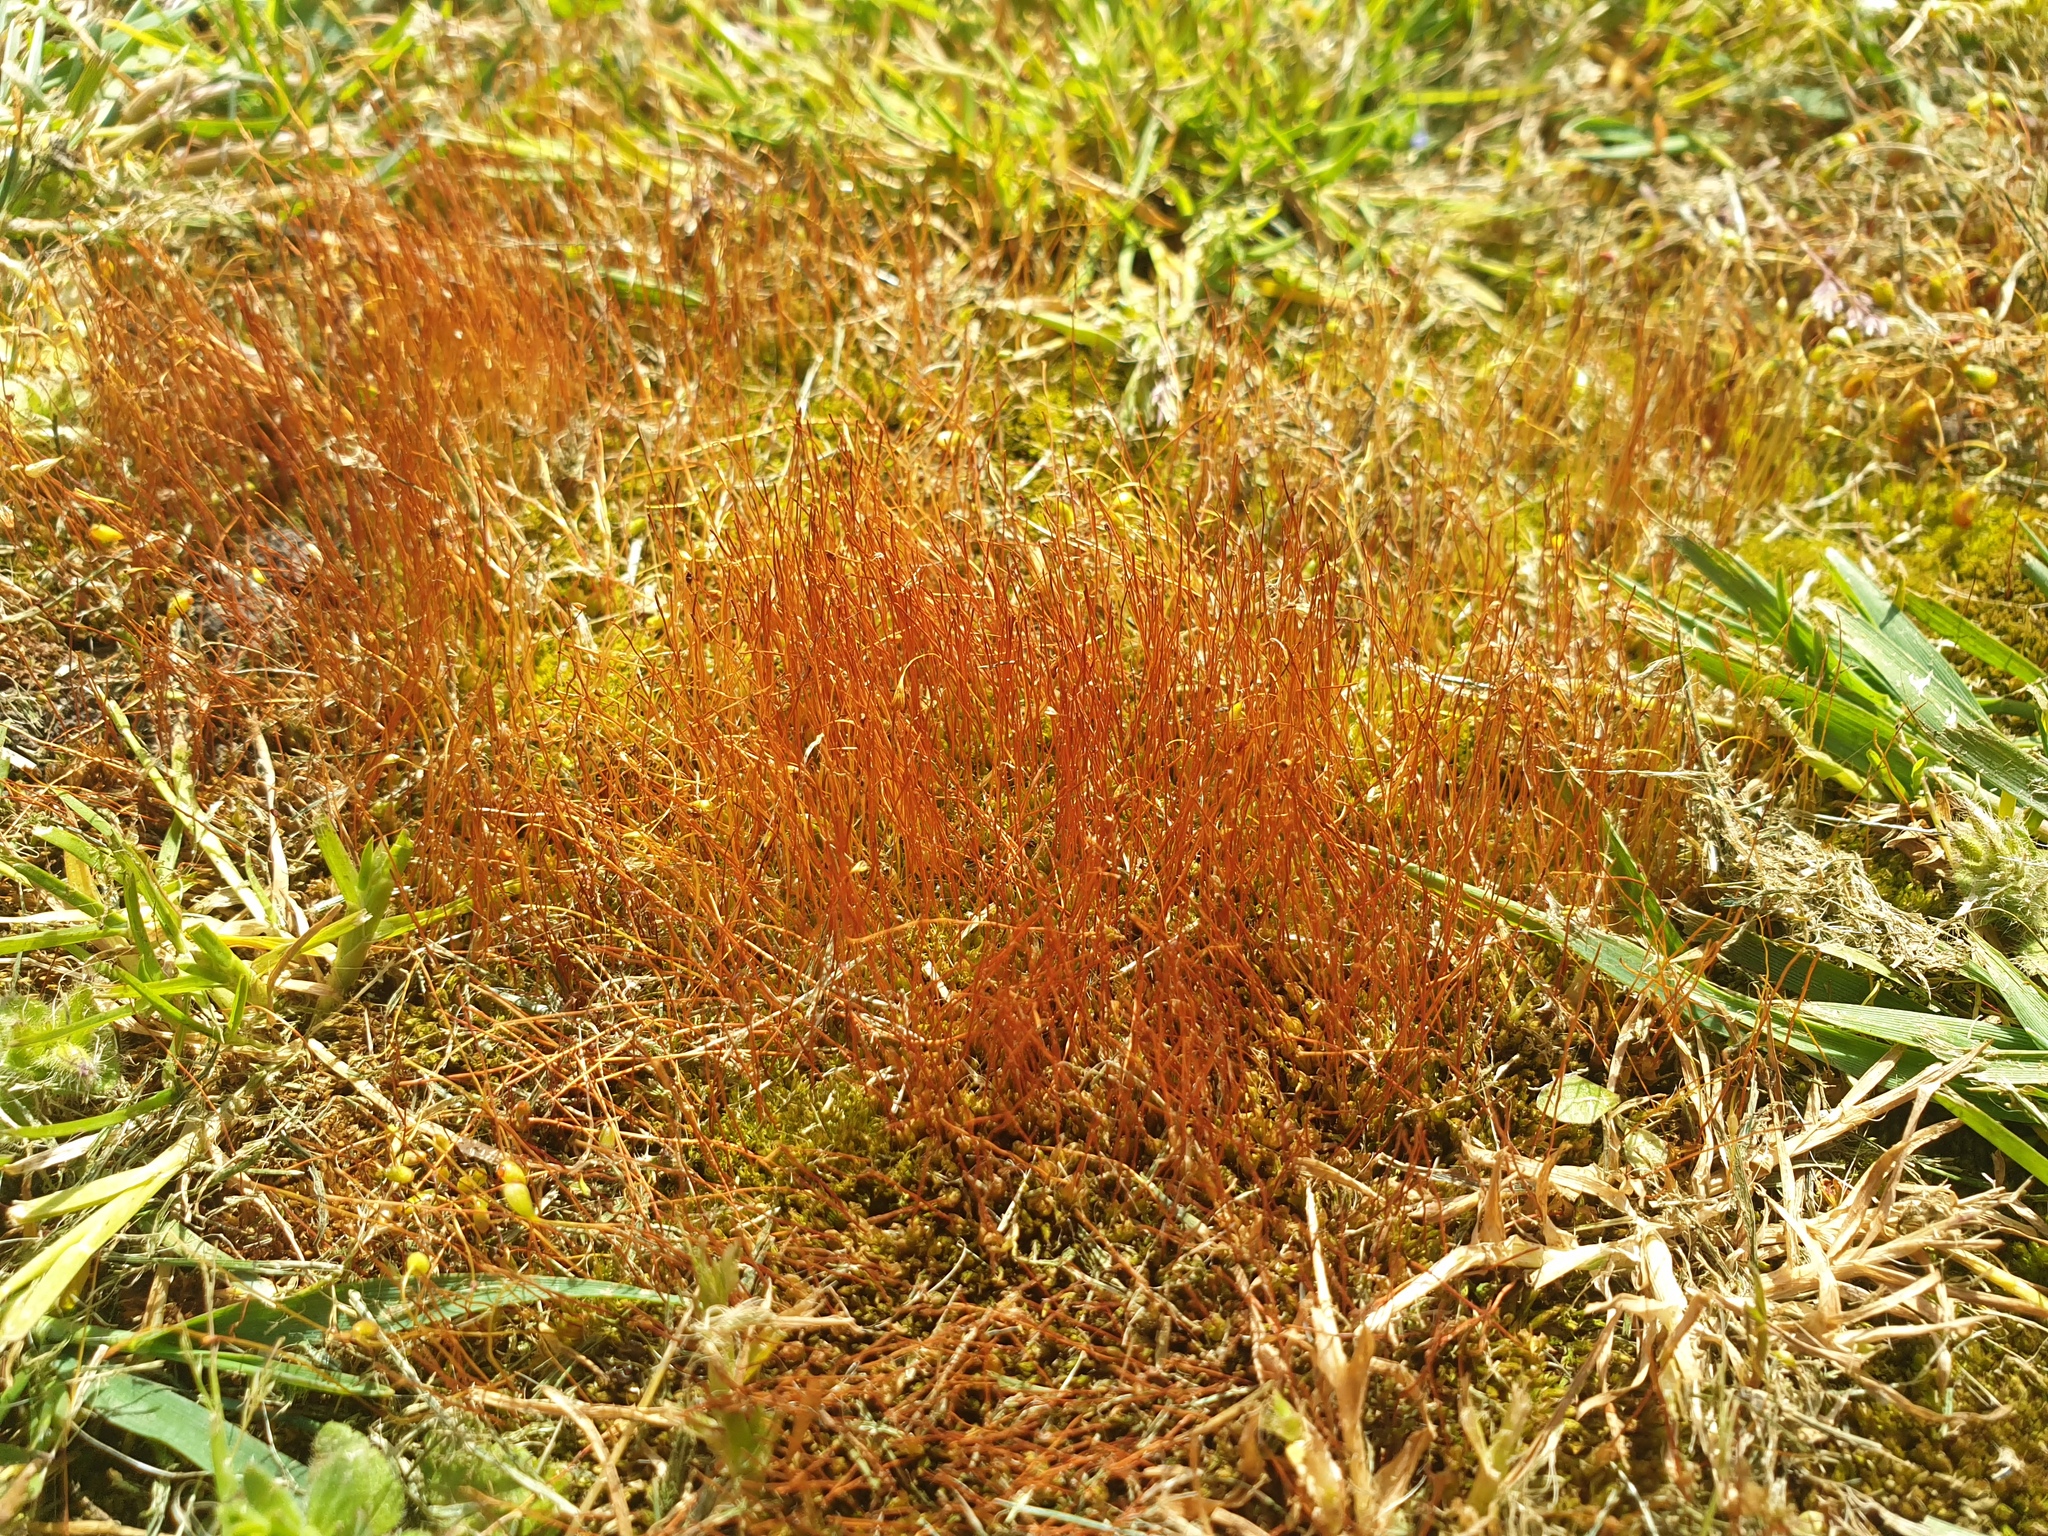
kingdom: Plantae
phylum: Bryophyta
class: Bryopsida
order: Funariales
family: Funariaceae
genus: Funaria
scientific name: Funaria hygrometrica
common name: Common cord moss
